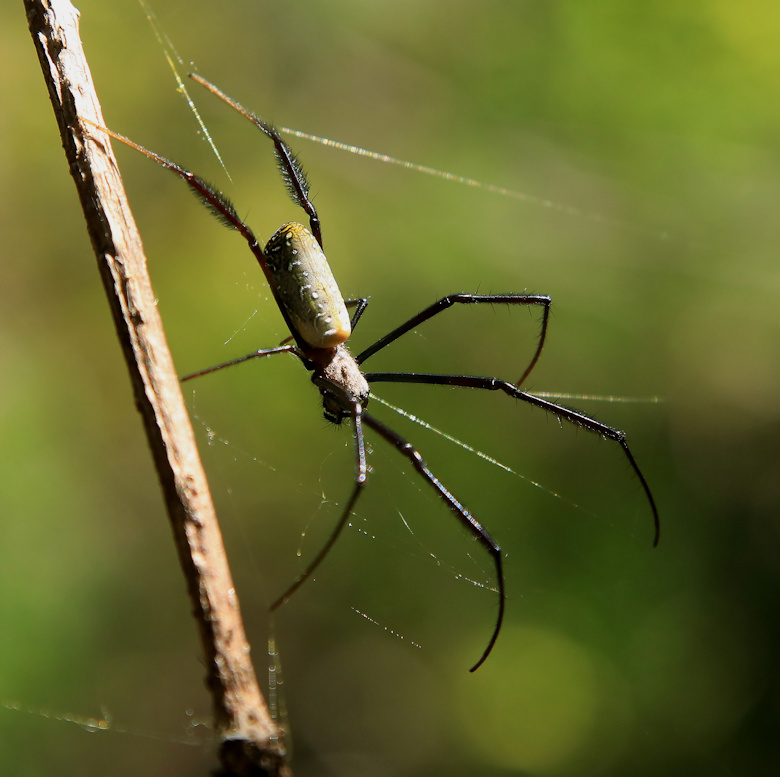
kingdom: Animalia
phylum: Arthropoda
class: Arachnida
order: Araneae
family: Araneidae
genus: Trichonephila
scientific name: Trichonephila fenestrata
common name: Hairy golden orb weaver
